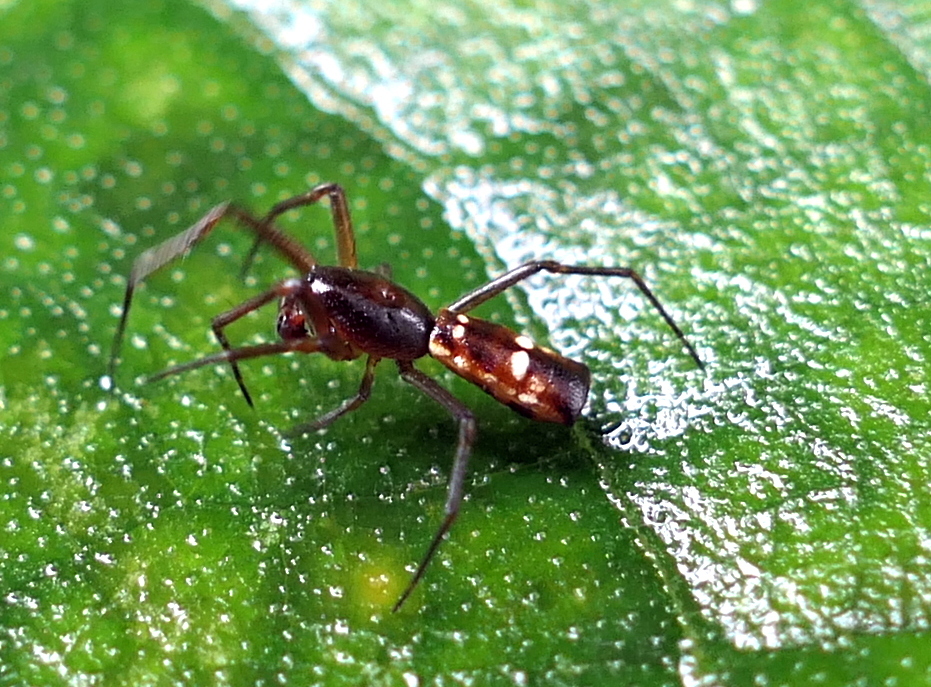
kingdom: Animalia
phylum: Arthropoda
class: Arachnida
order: Araneae
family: Araneidae
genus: Micrathena
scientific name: Micrathena fissispina
